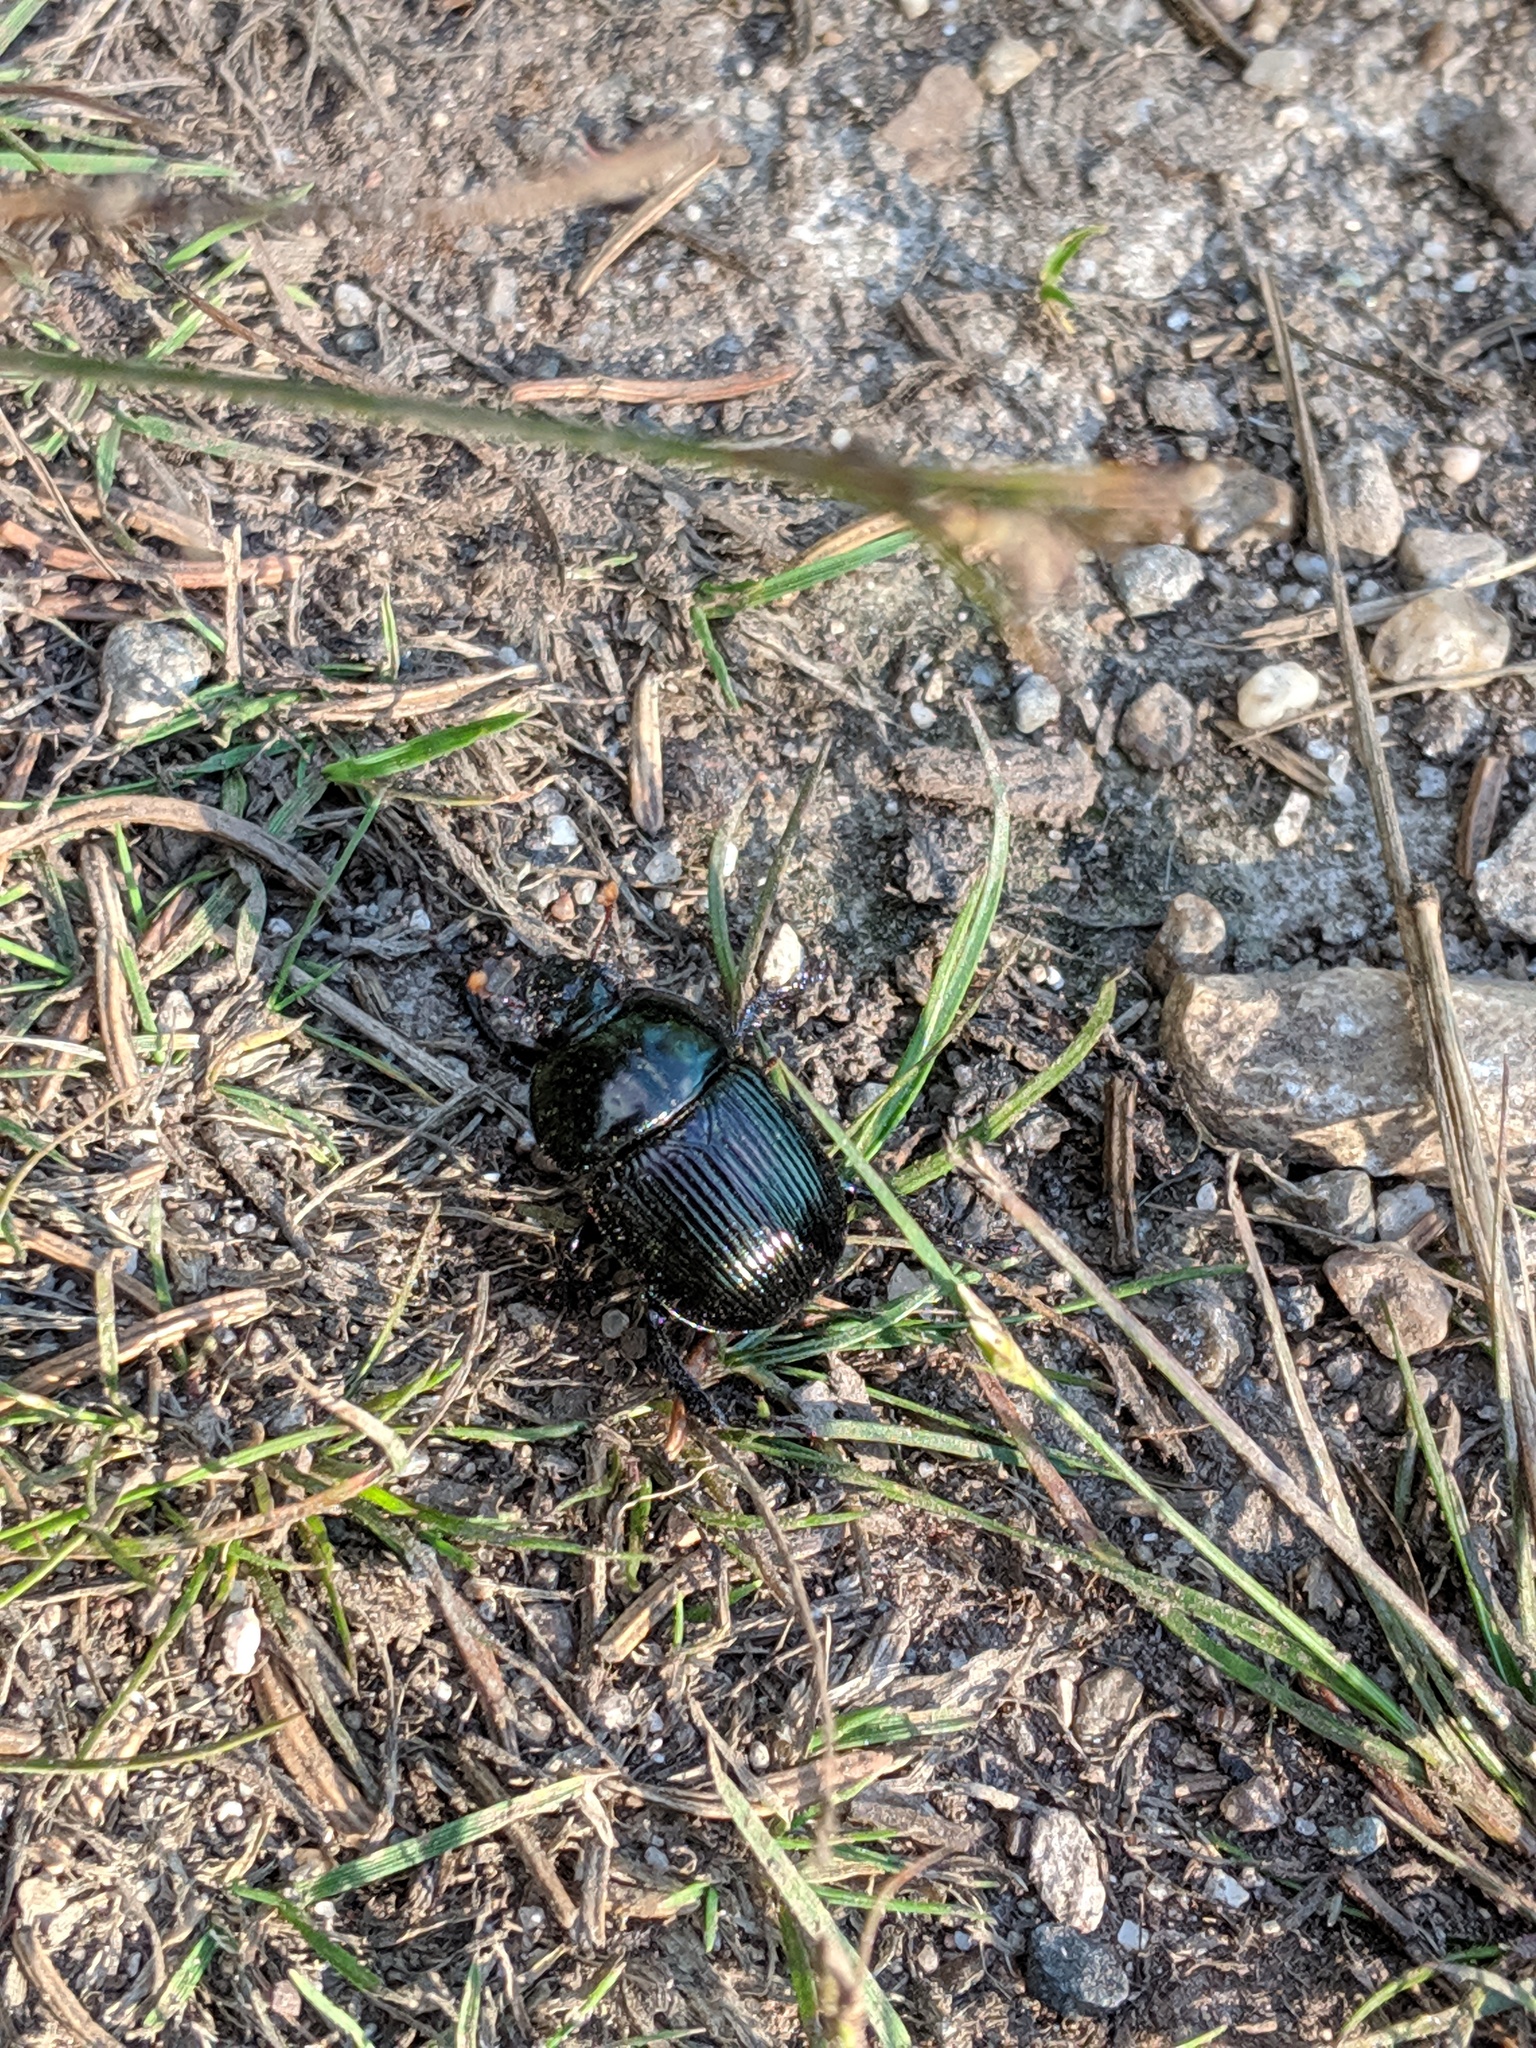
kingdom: Animalia
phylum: Arthropoda
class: Insecta
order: Coleoptera
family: Geotrupidae
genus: Anoplotrupes
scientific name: Anoplotrupes balyi
